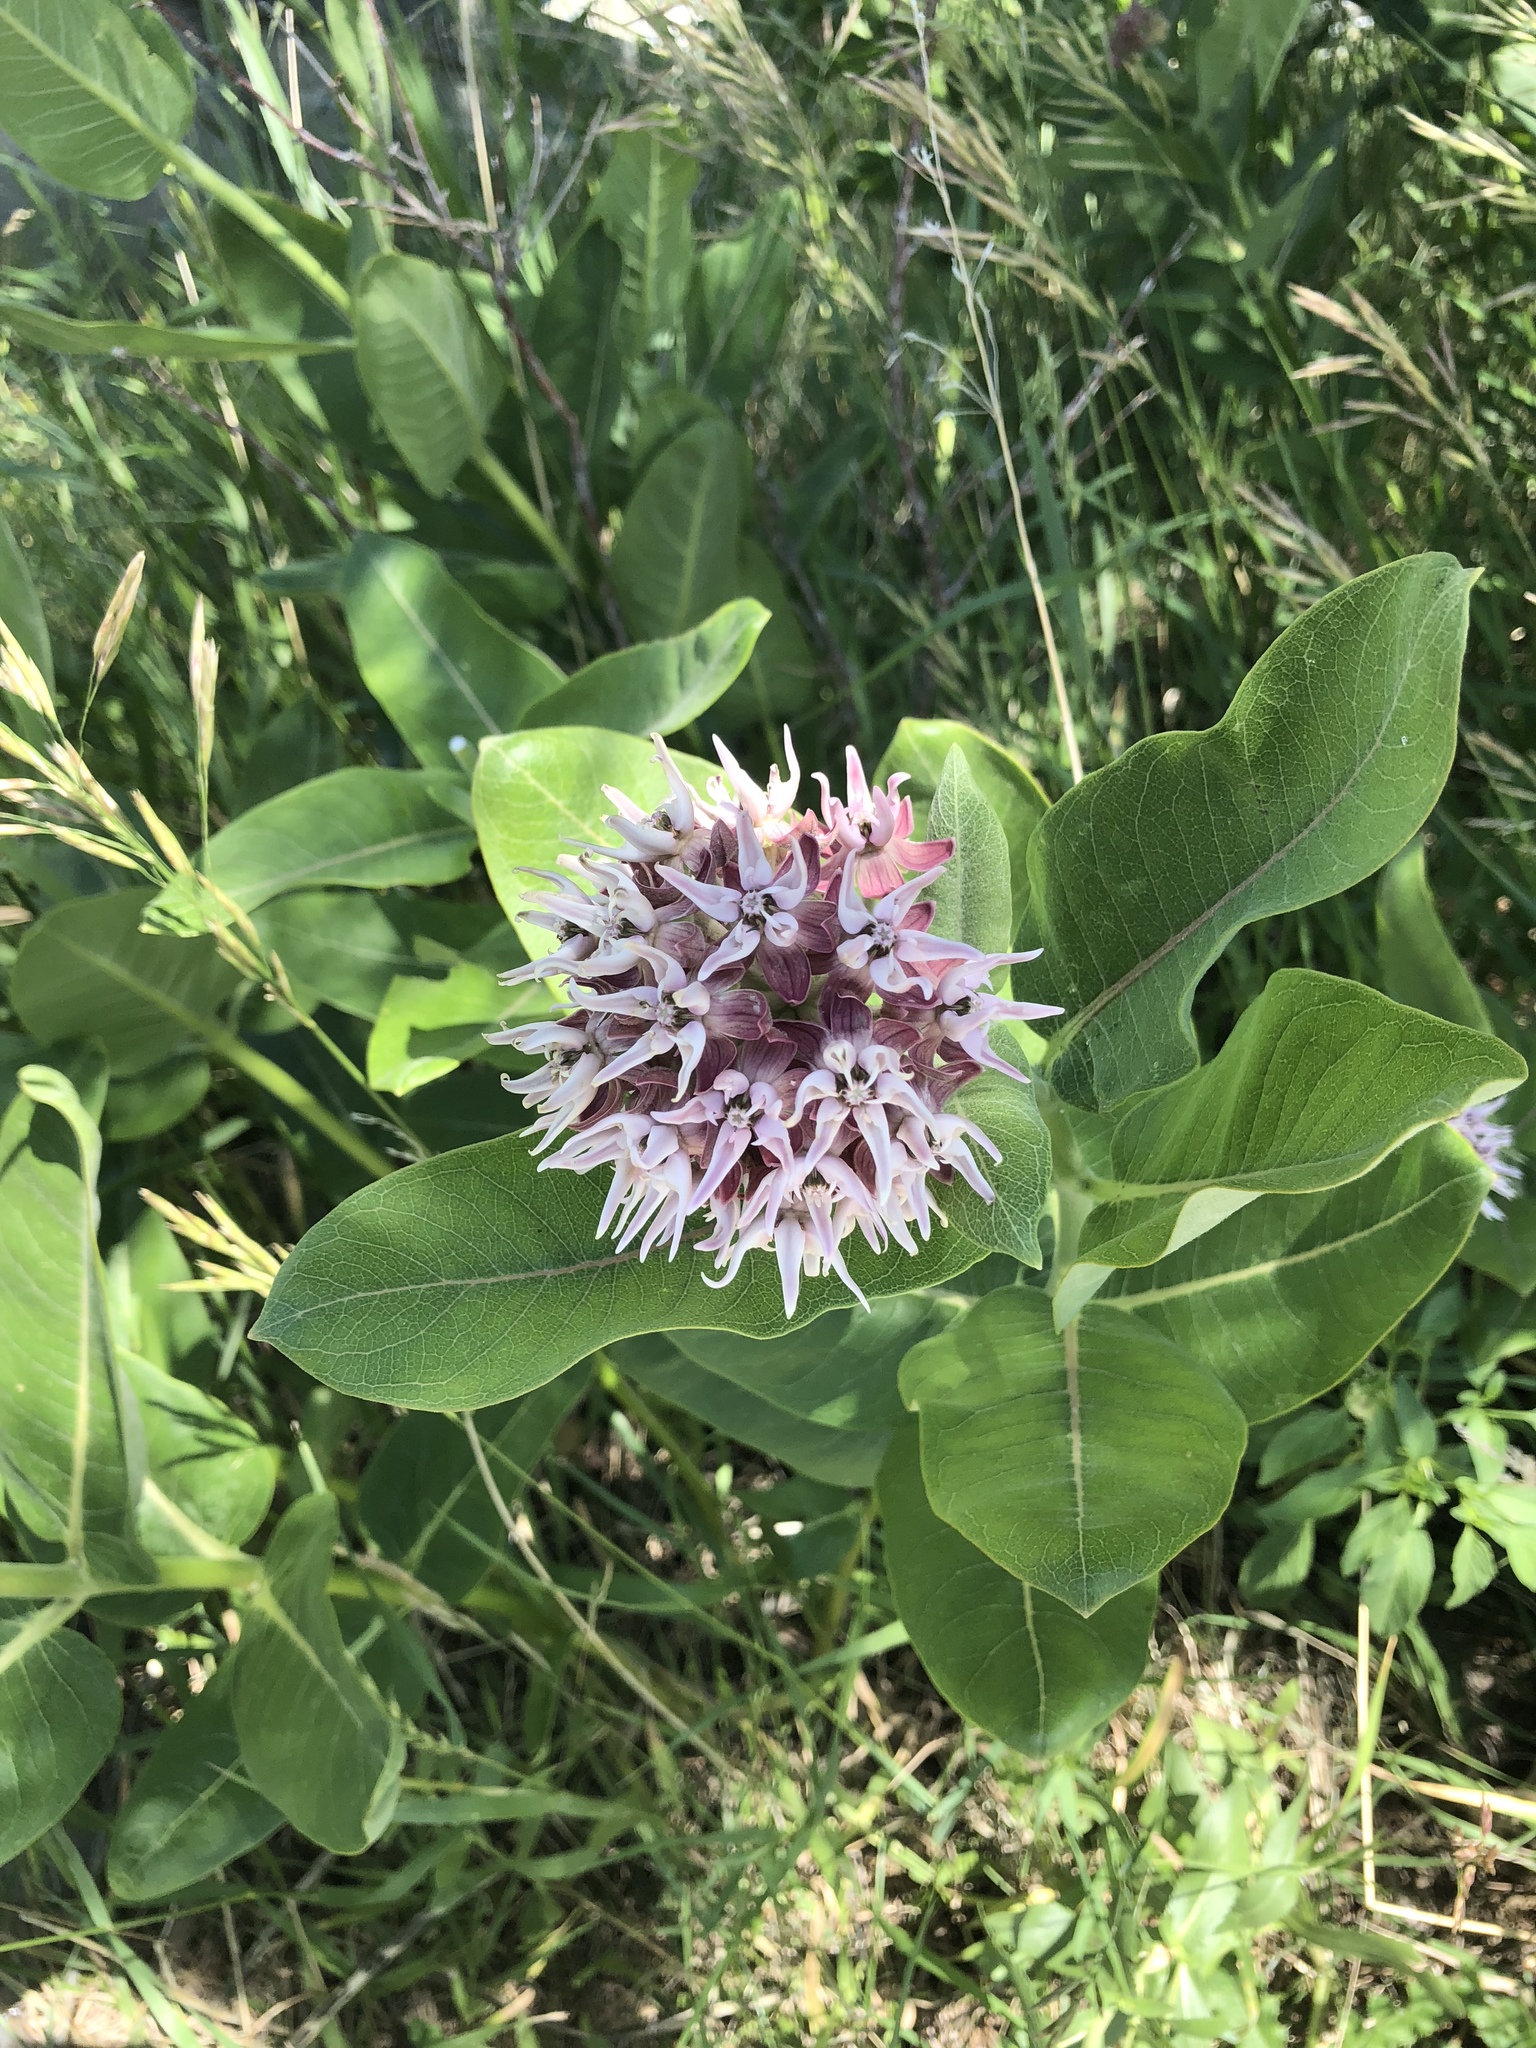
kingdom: Plantae
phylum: Tracheophyta
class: Magnoliopsida
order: Gentianales
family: Apocynaceae
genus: Asclepias
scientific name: Asclepias speciosa
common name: Showy milkweed
